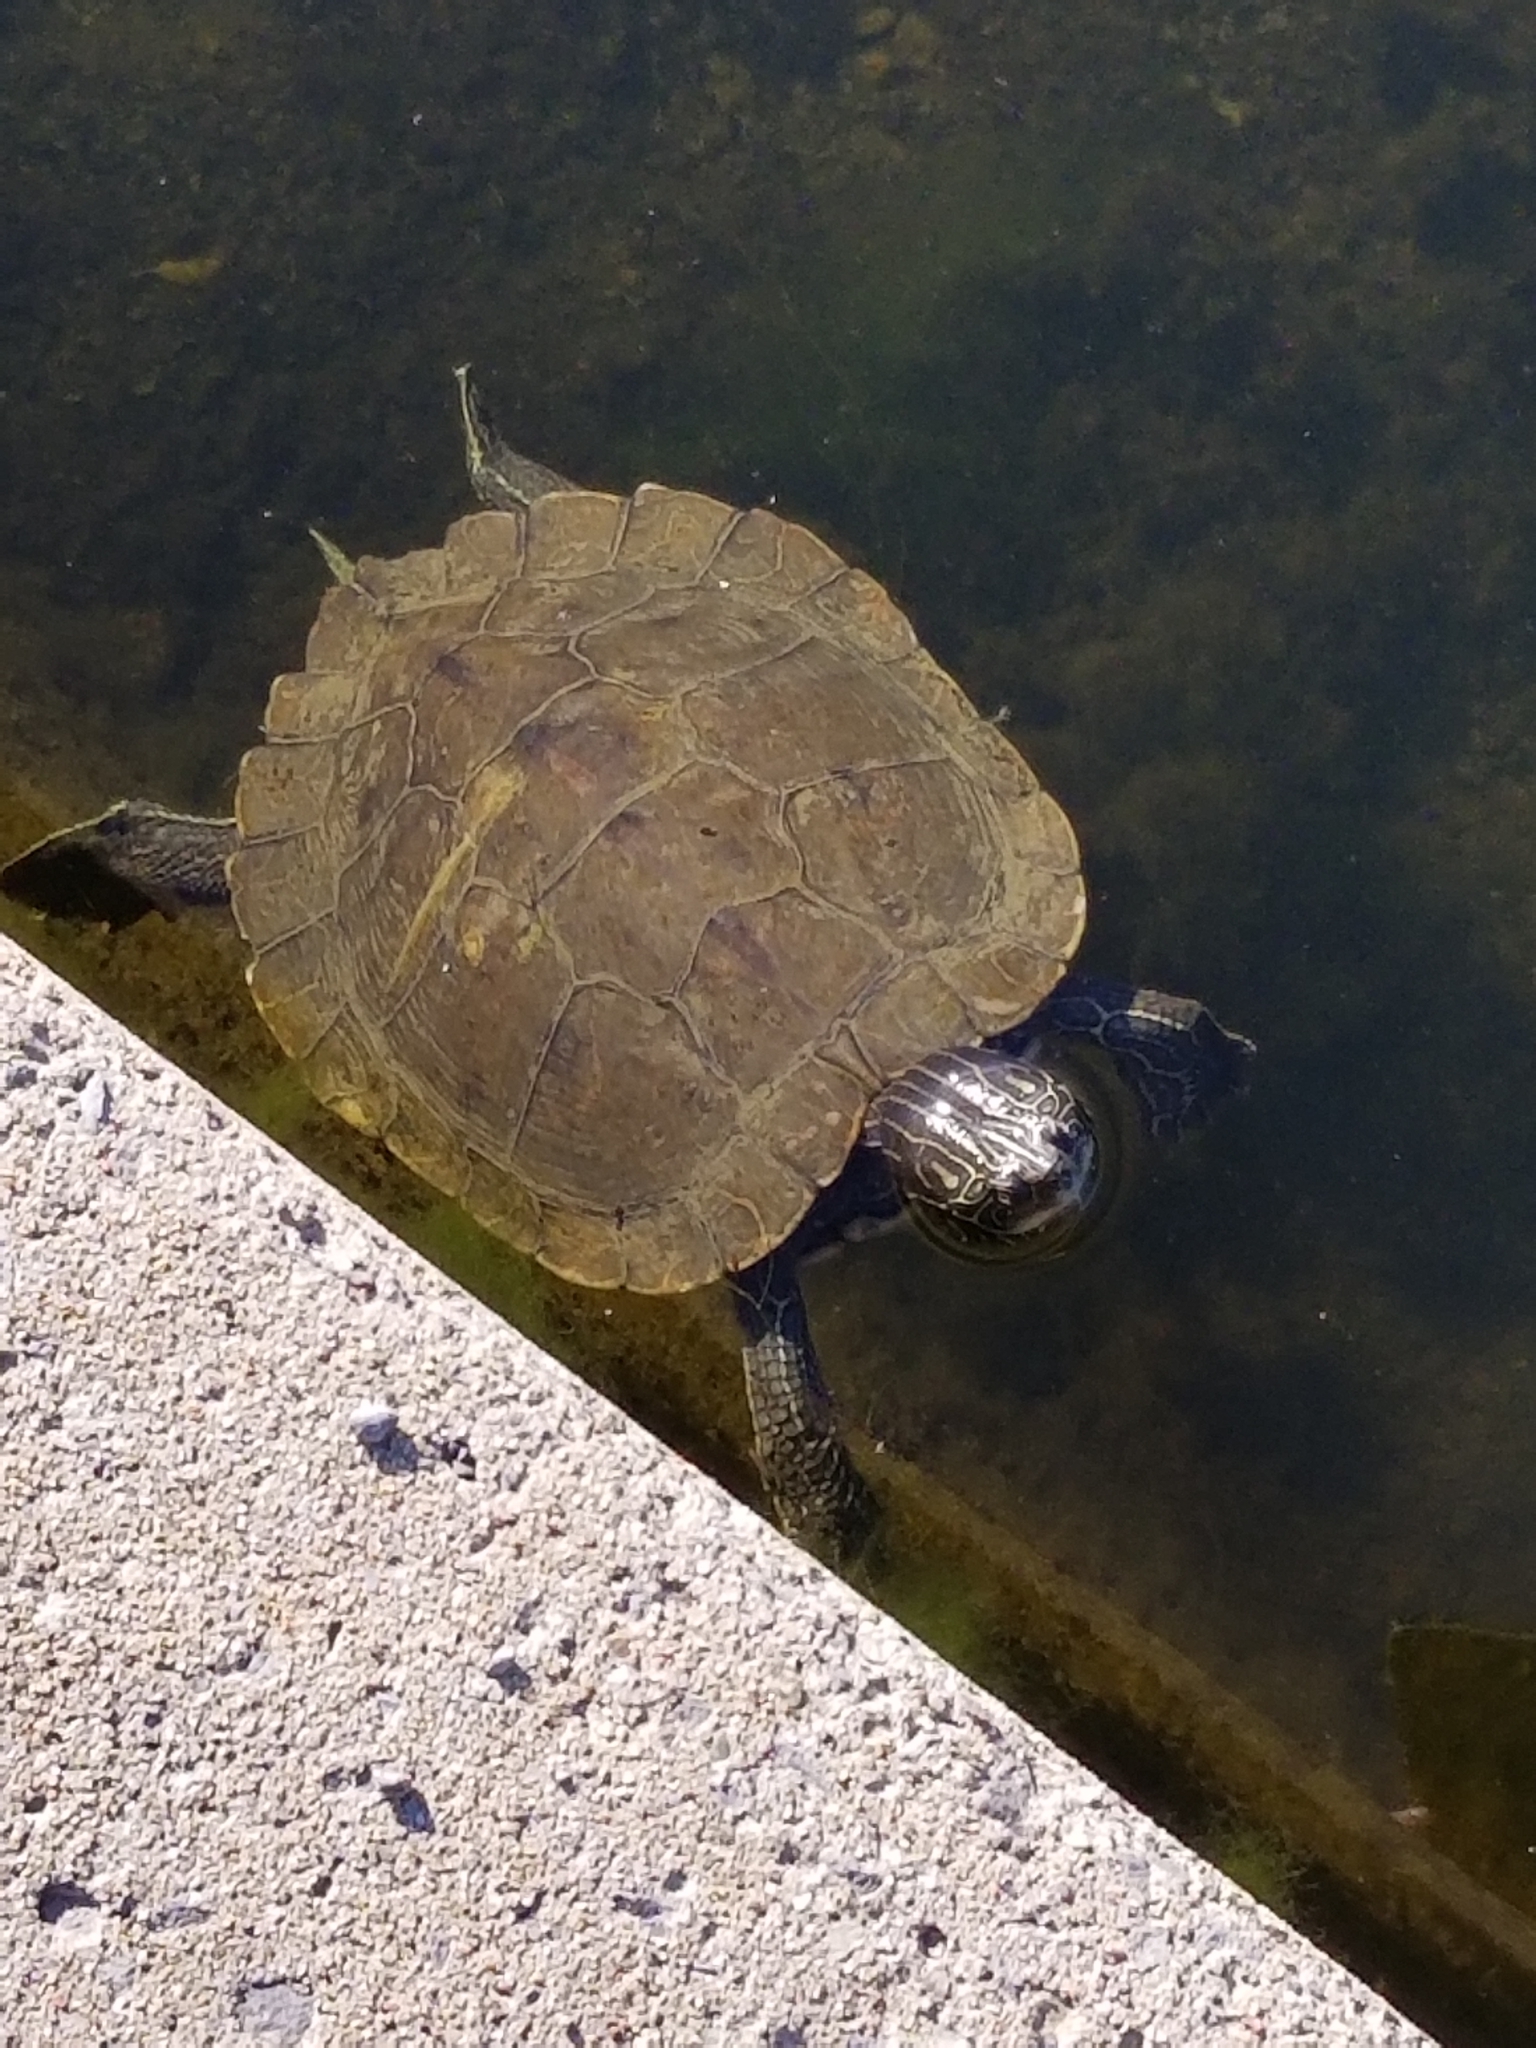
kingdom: Animalia
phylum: Chordata
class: Testudines
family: Emydidae
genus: Graptemys
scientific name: Graptemys geographica
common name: Common map turtle
